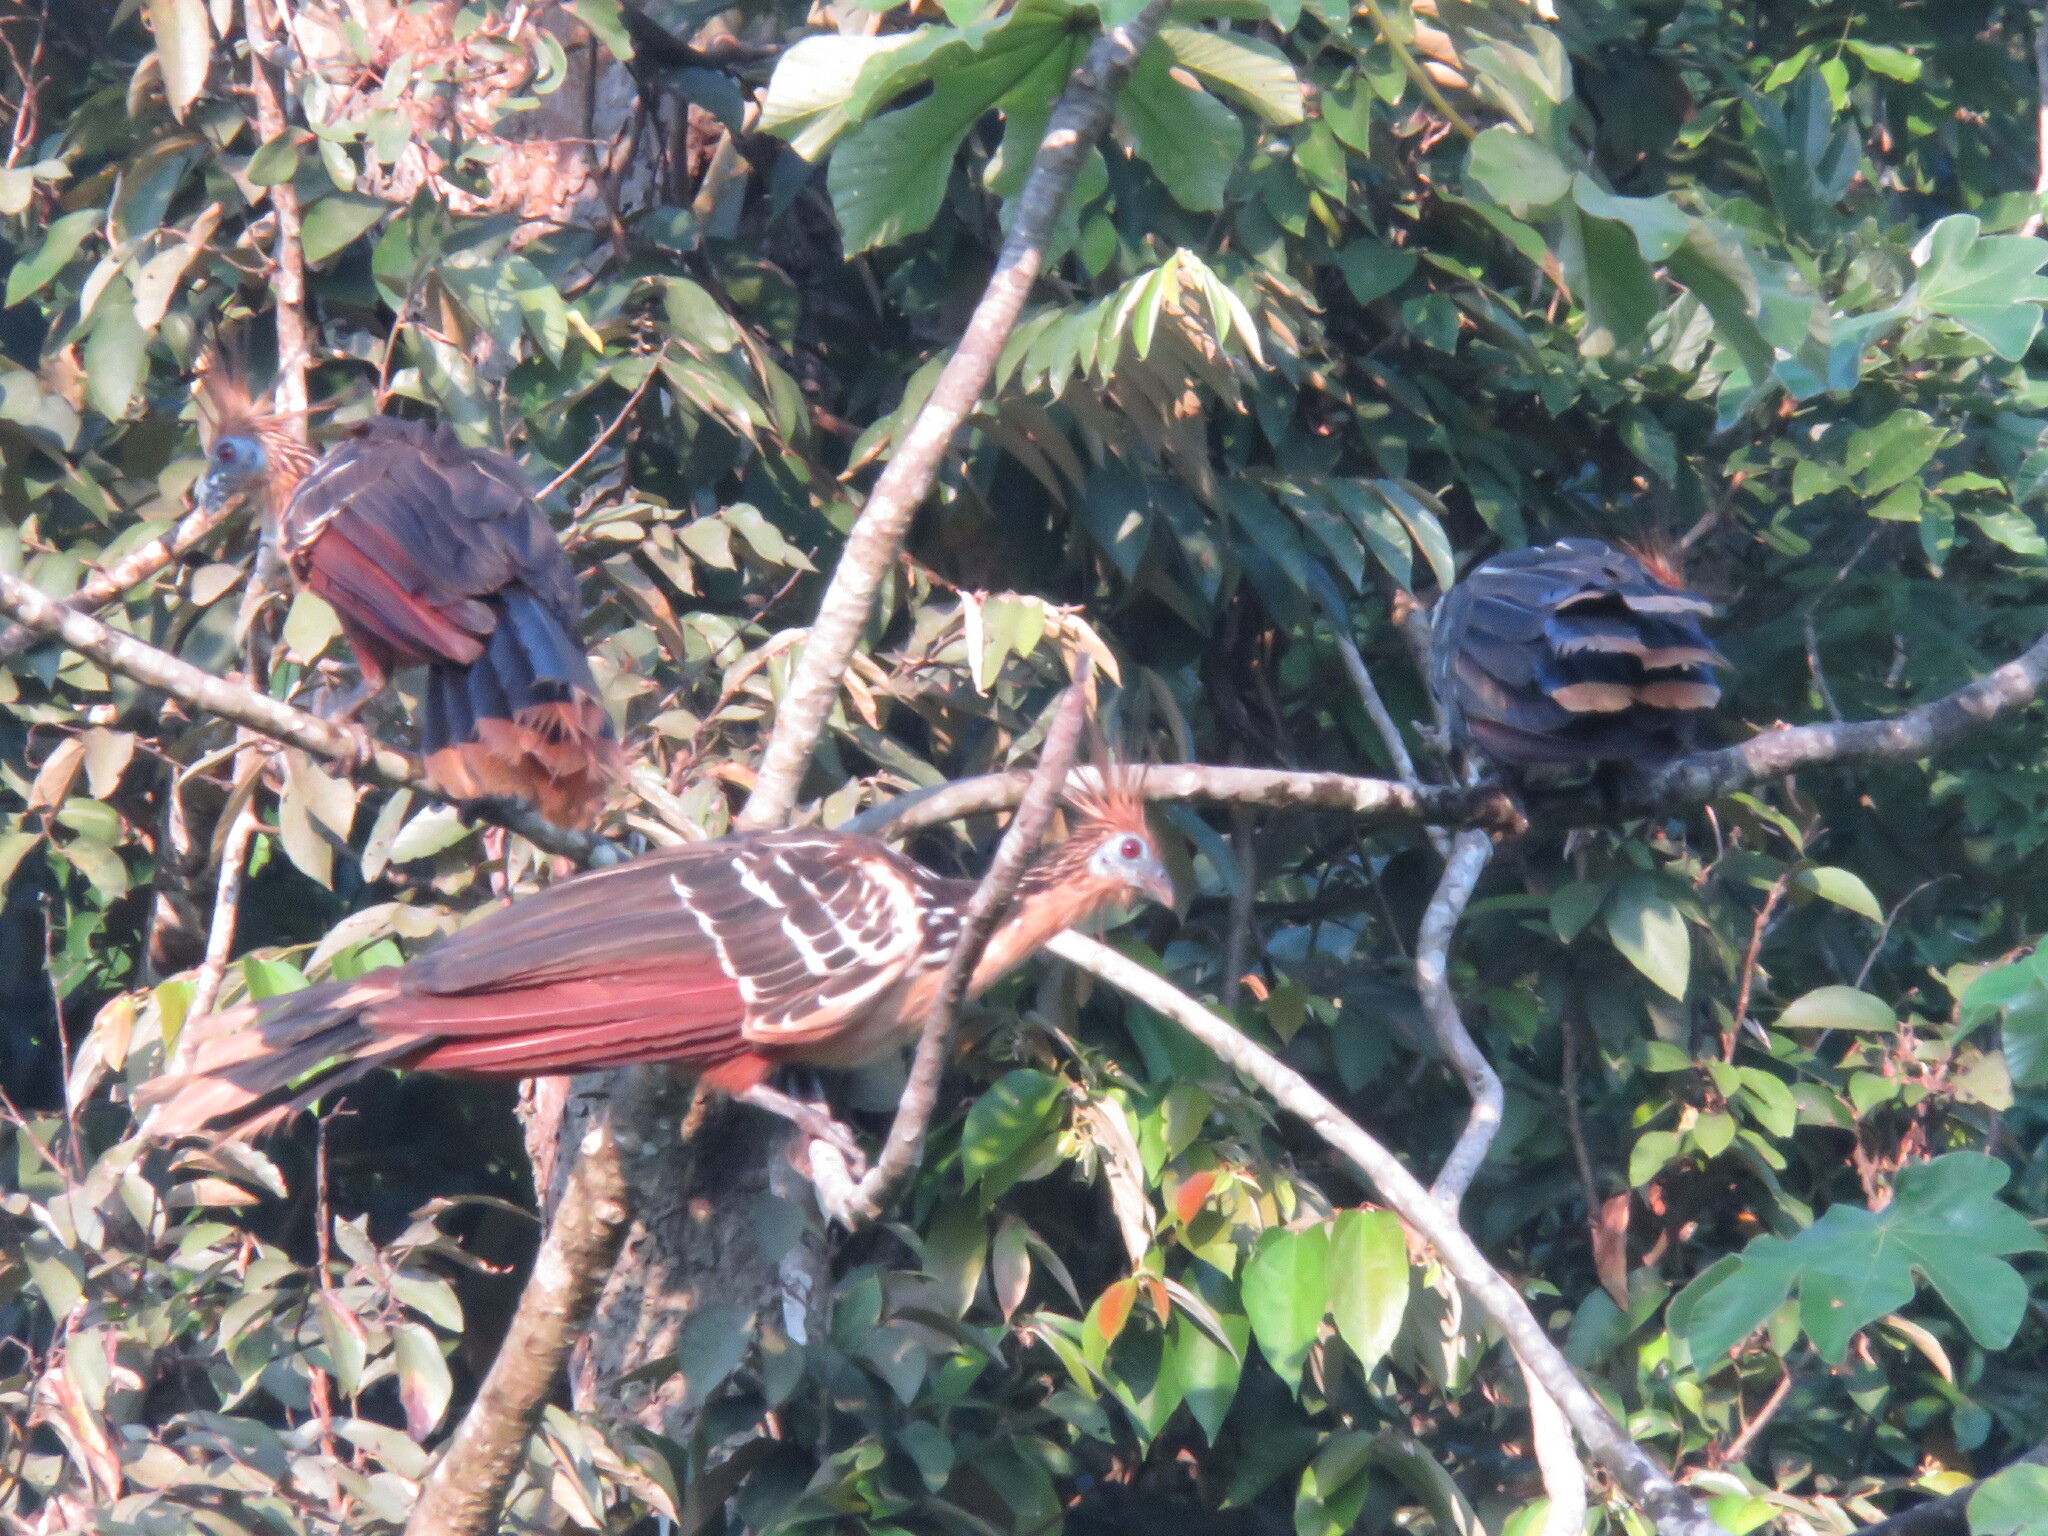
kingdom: Animalia
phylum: Chordata
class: Aves
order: Opisthocomiformes
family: Opisthocomidae
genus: Opisthocomus
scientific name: Opisthocomus hoazin
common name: Hoatzin
